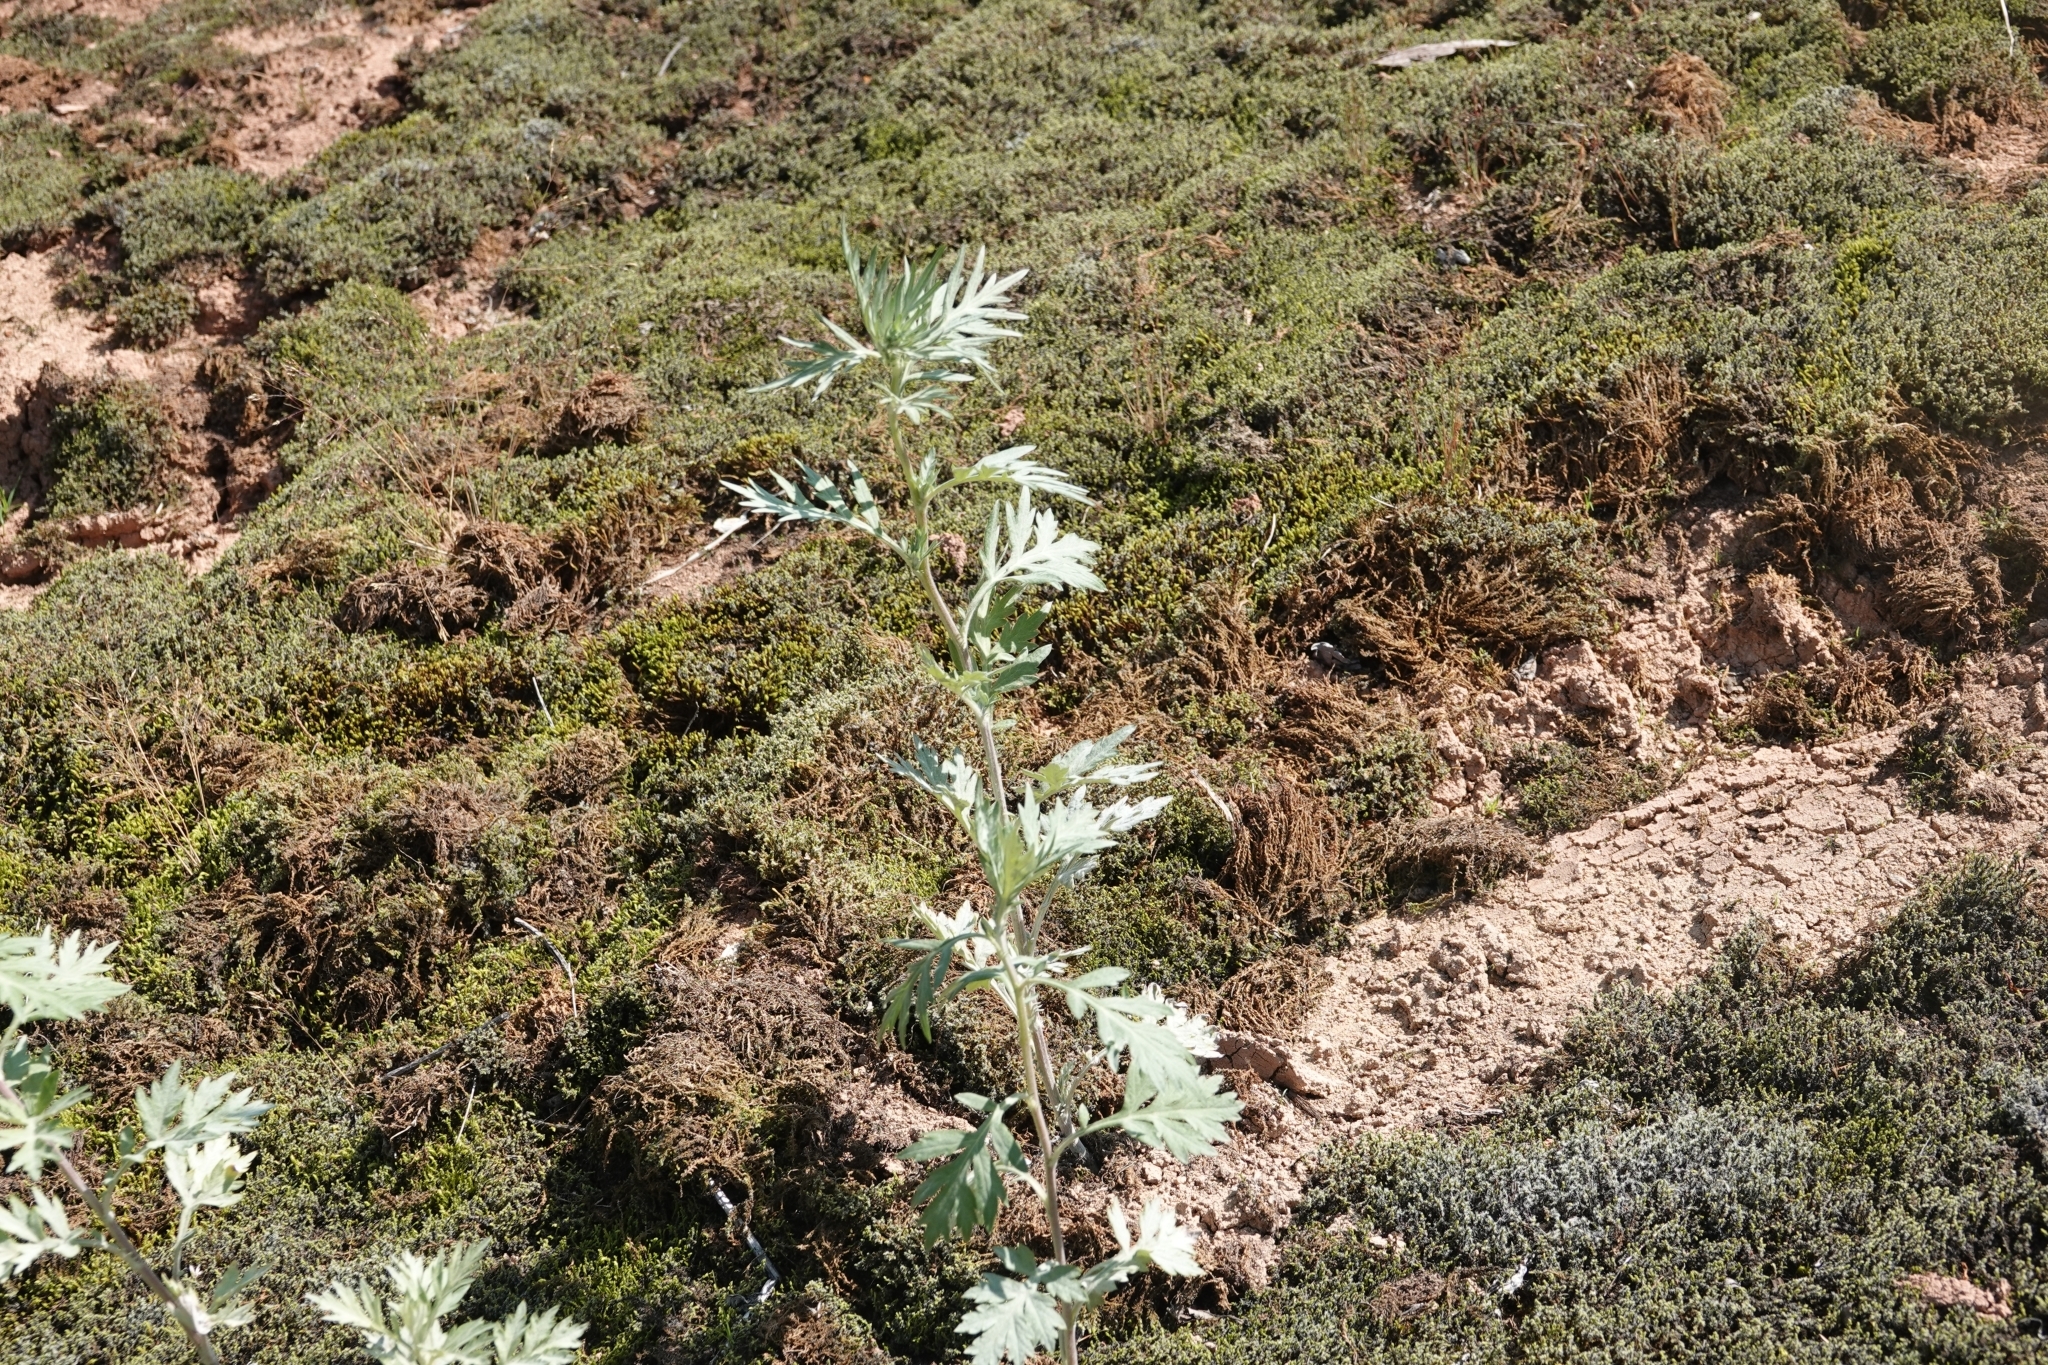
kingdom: Plantae
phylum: Tracheophyta
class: Magnoliopsida
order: Asterales
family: Asteraceae
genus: Artemisia
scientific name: Artemisia vulgaris
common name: Mugwort
